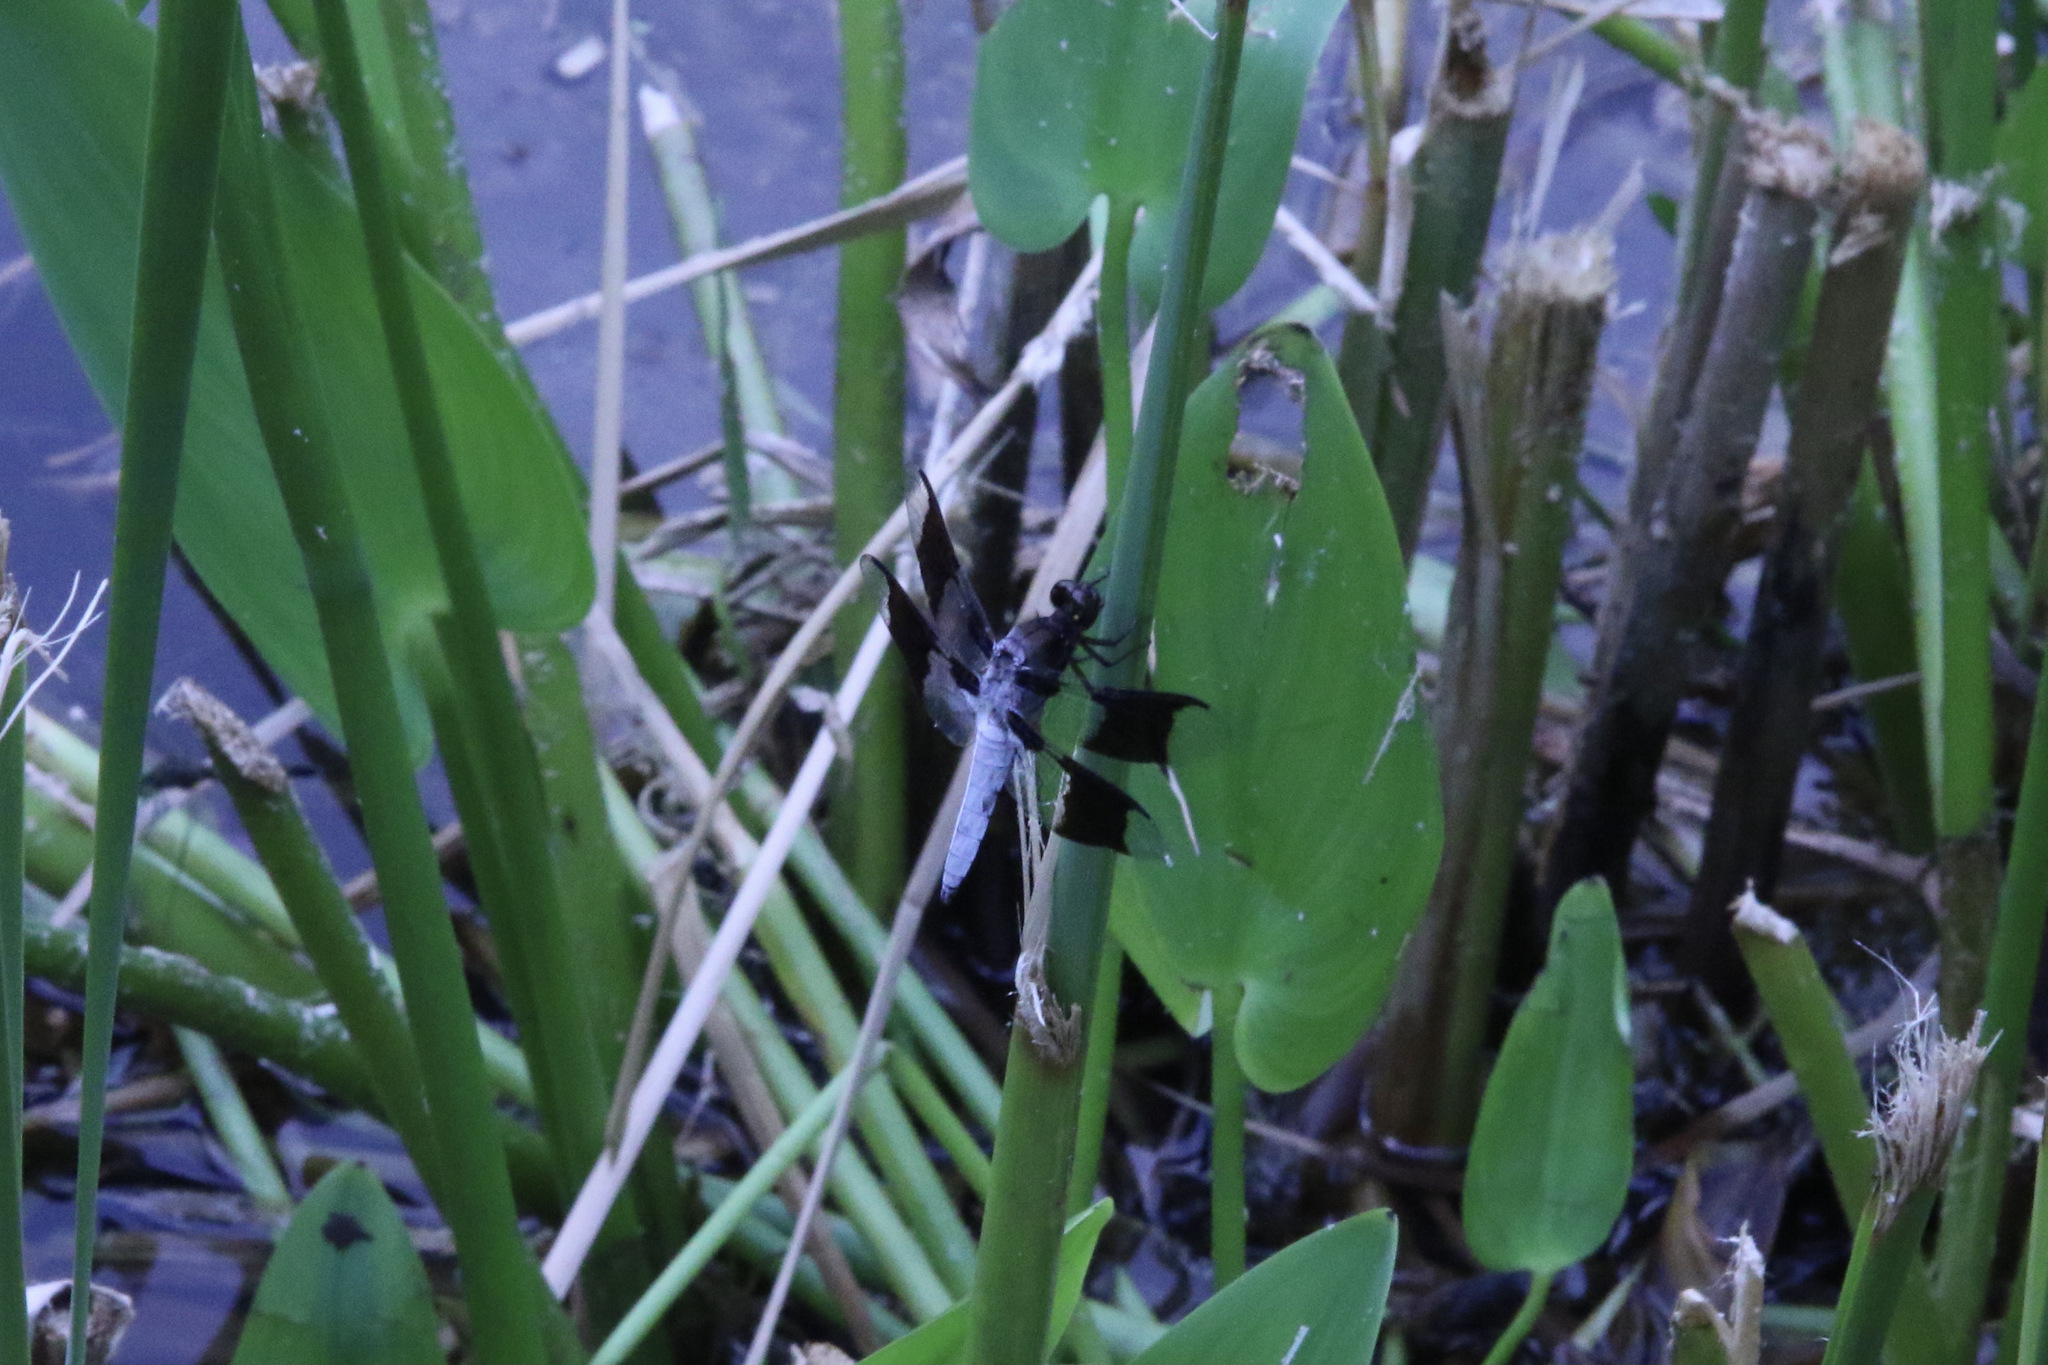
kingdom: Animalia
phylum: Arthropoda
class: Insecta
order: Odonata
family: Libellulidae
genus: Plathemis
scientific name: Plathemis lydia
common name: Common whitetail
